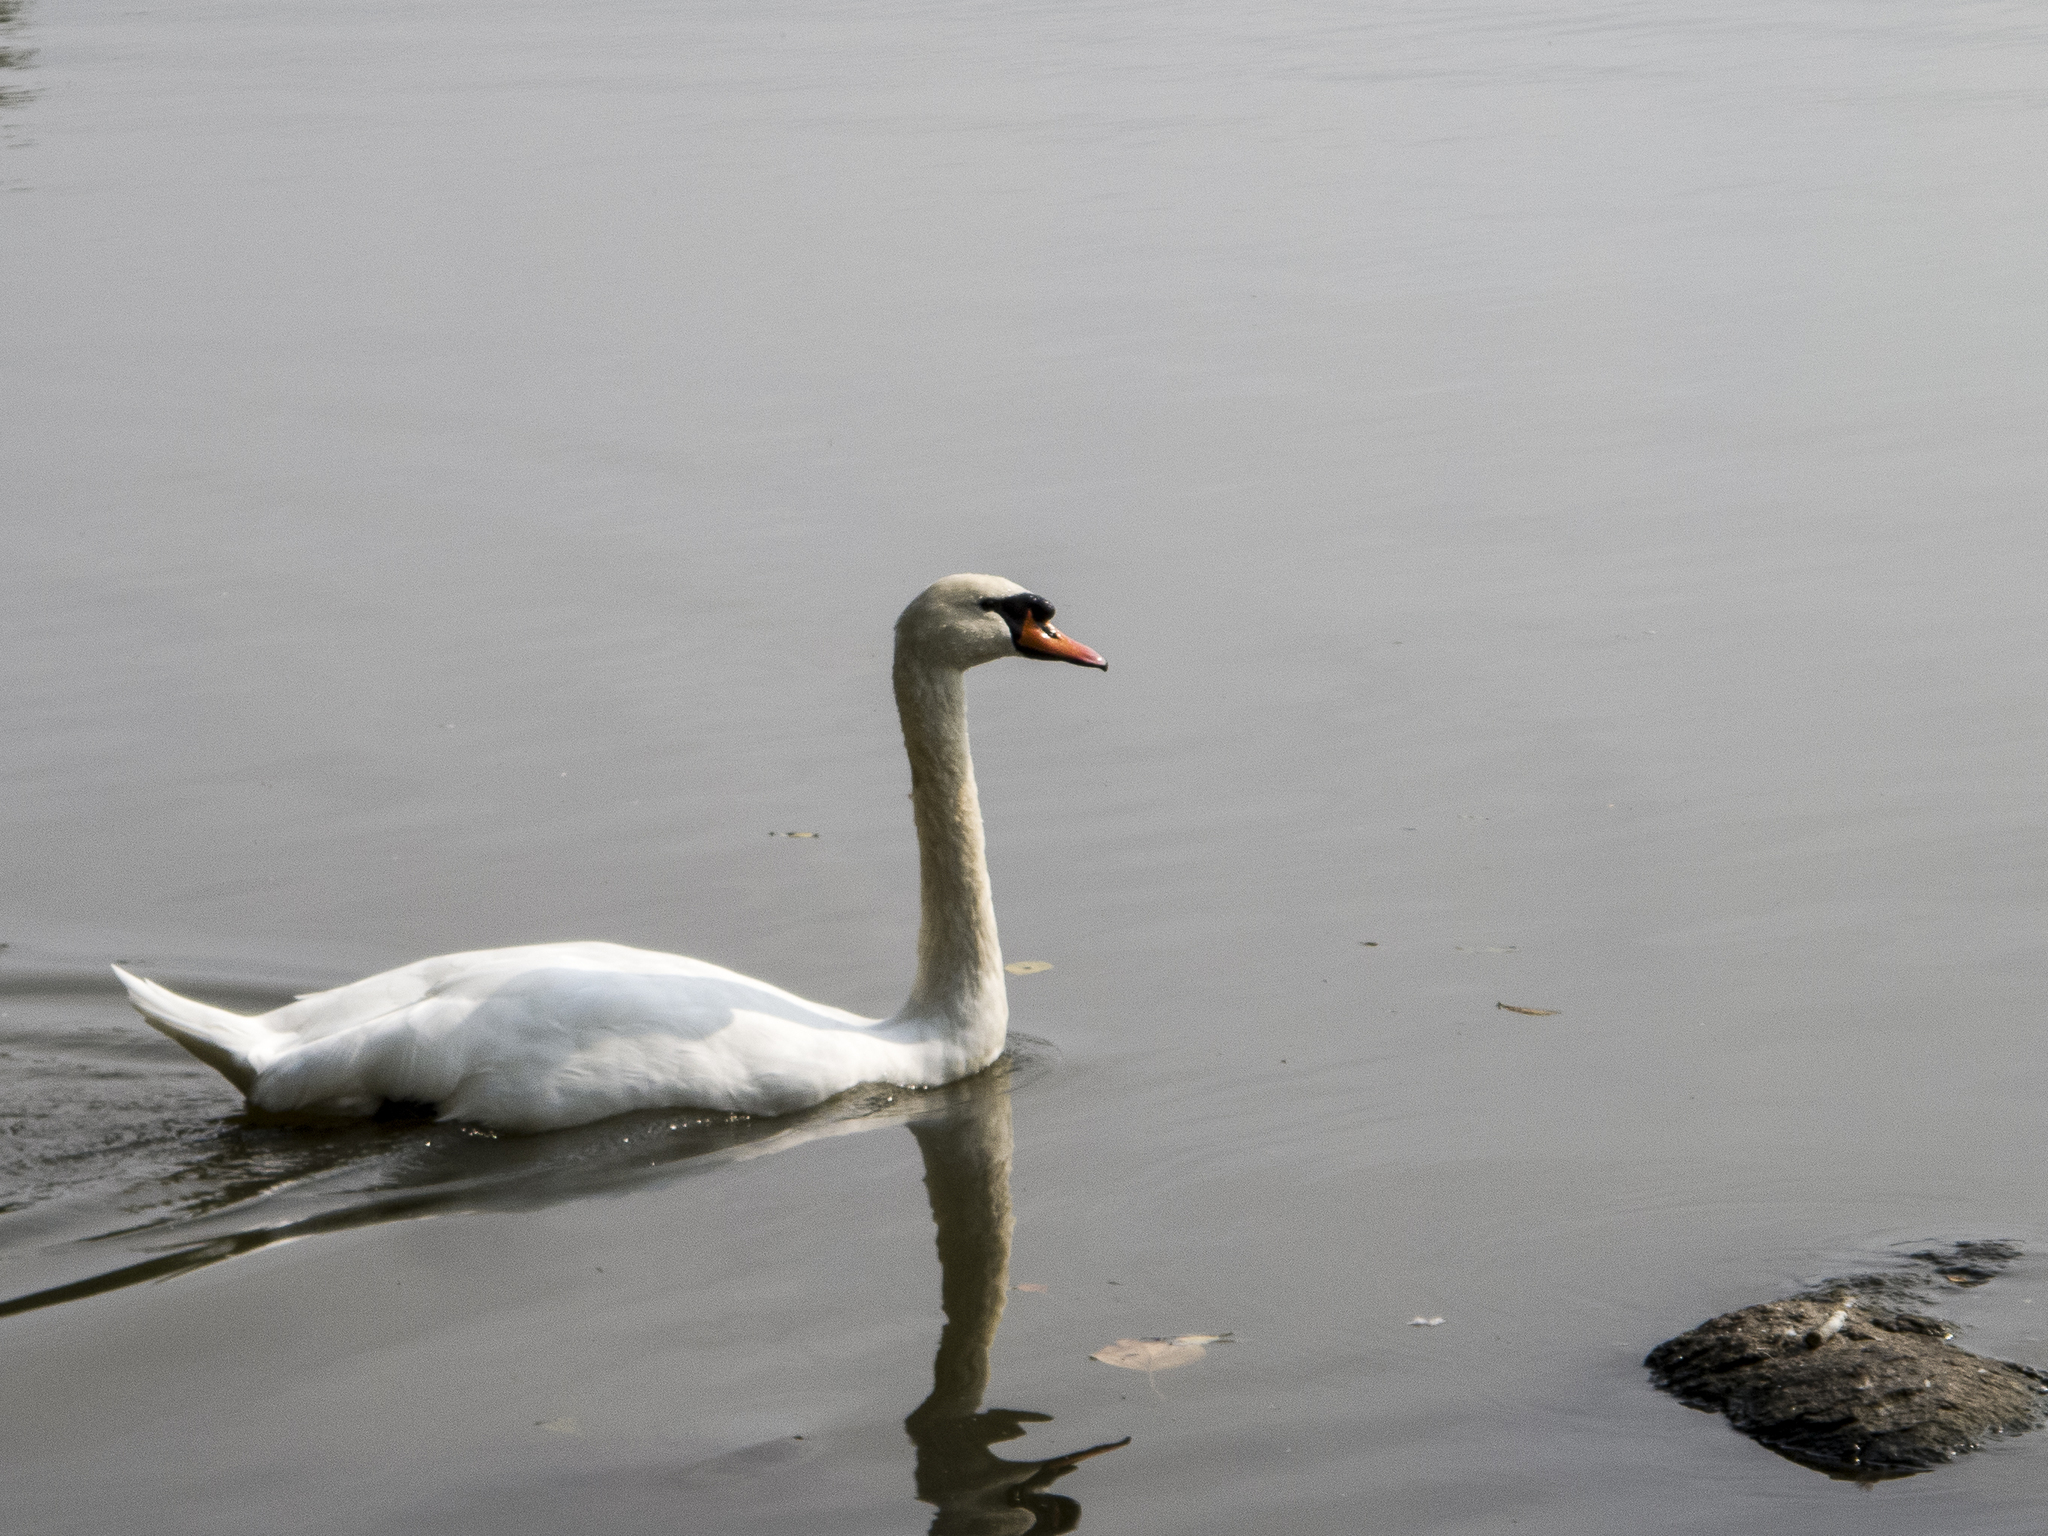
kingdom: Animalia
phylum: Chordata
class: Aves
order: Anseriformes
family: Anatidae
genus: Cygnus
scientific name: Cygnus olor
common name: Mute swan
